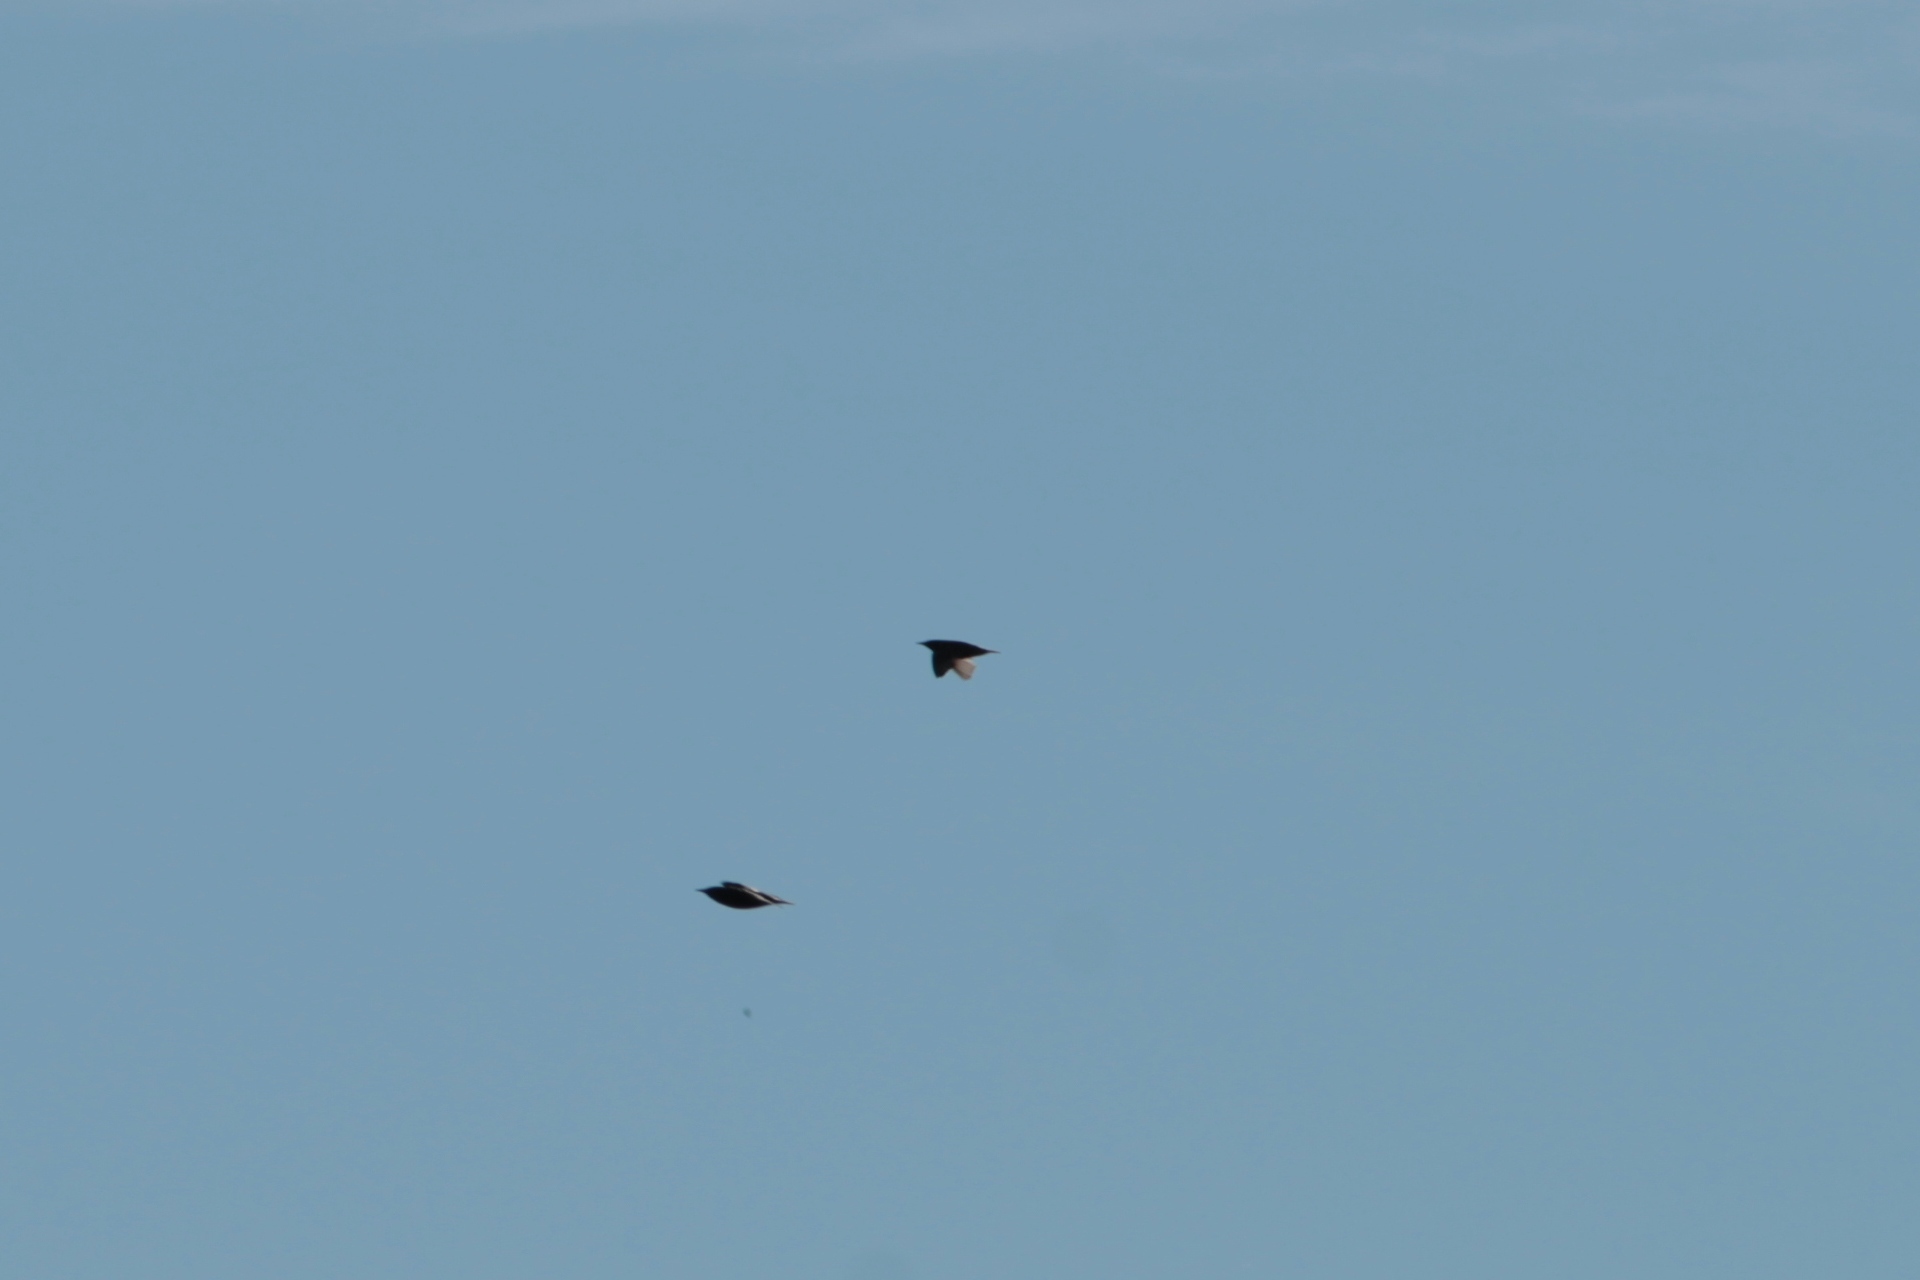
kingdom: Animalia
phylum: Chordata
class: Aves
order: Passeriformes
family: Sturnidae
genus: Sturnus
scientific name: Sturnus vulgaris
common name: Common starling
